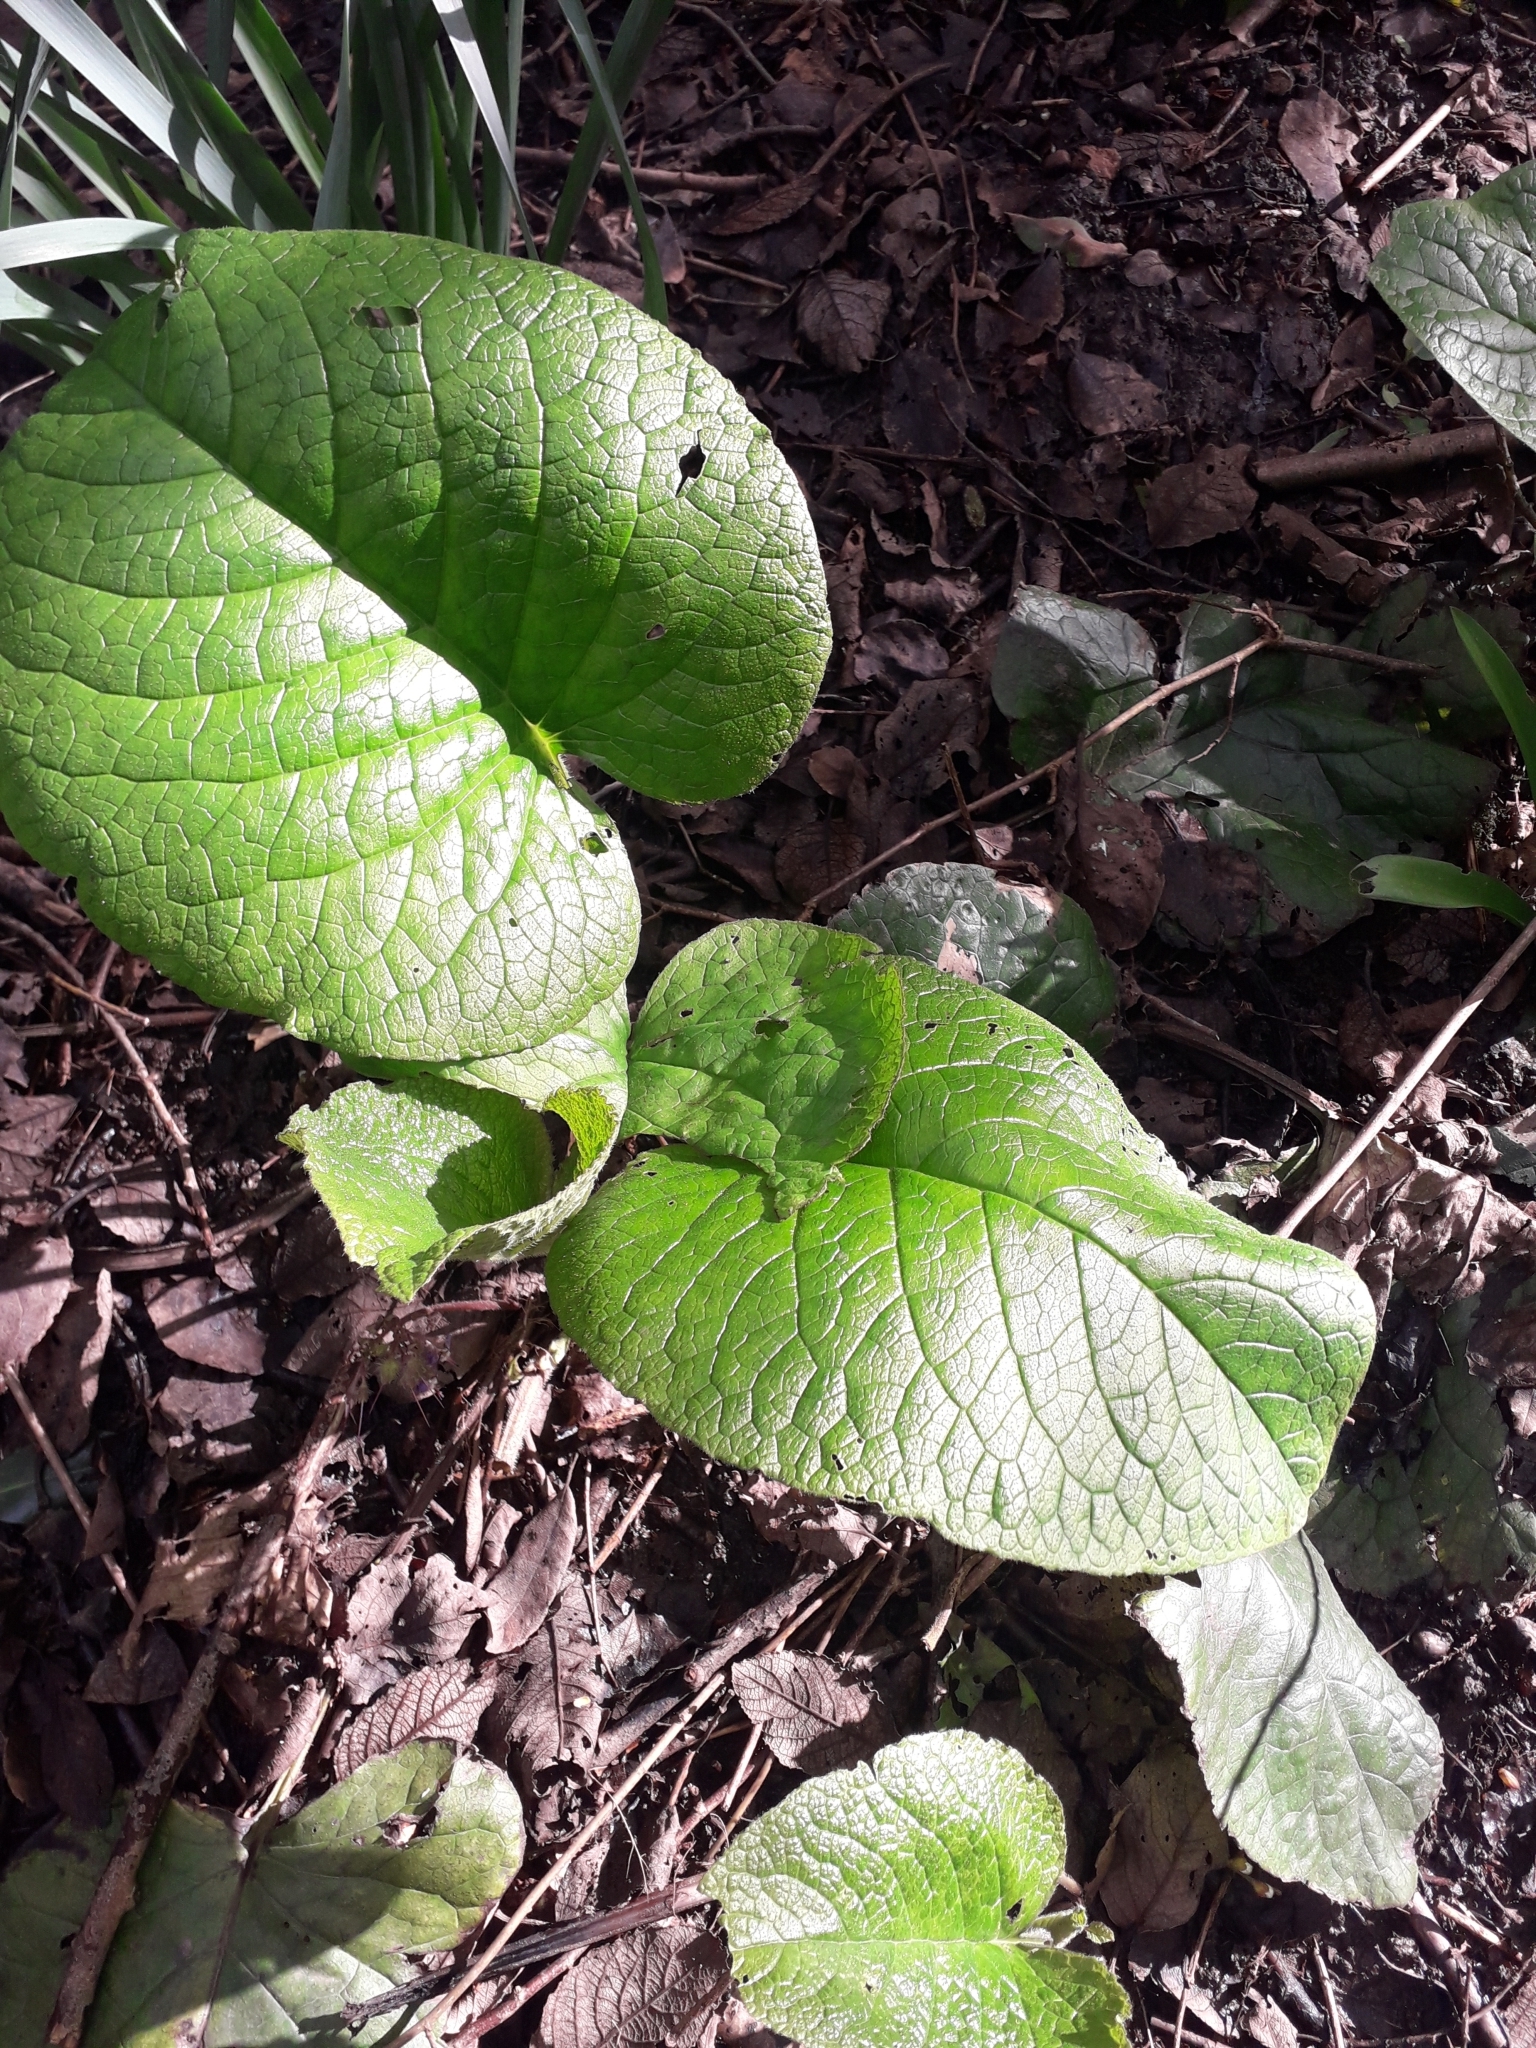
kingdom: Plantae
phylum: Tracheophyta
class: Magnoliopsida
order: Boraginales
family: Boraginaceae
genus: Trachystemon
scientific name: Trachystemon orientale
